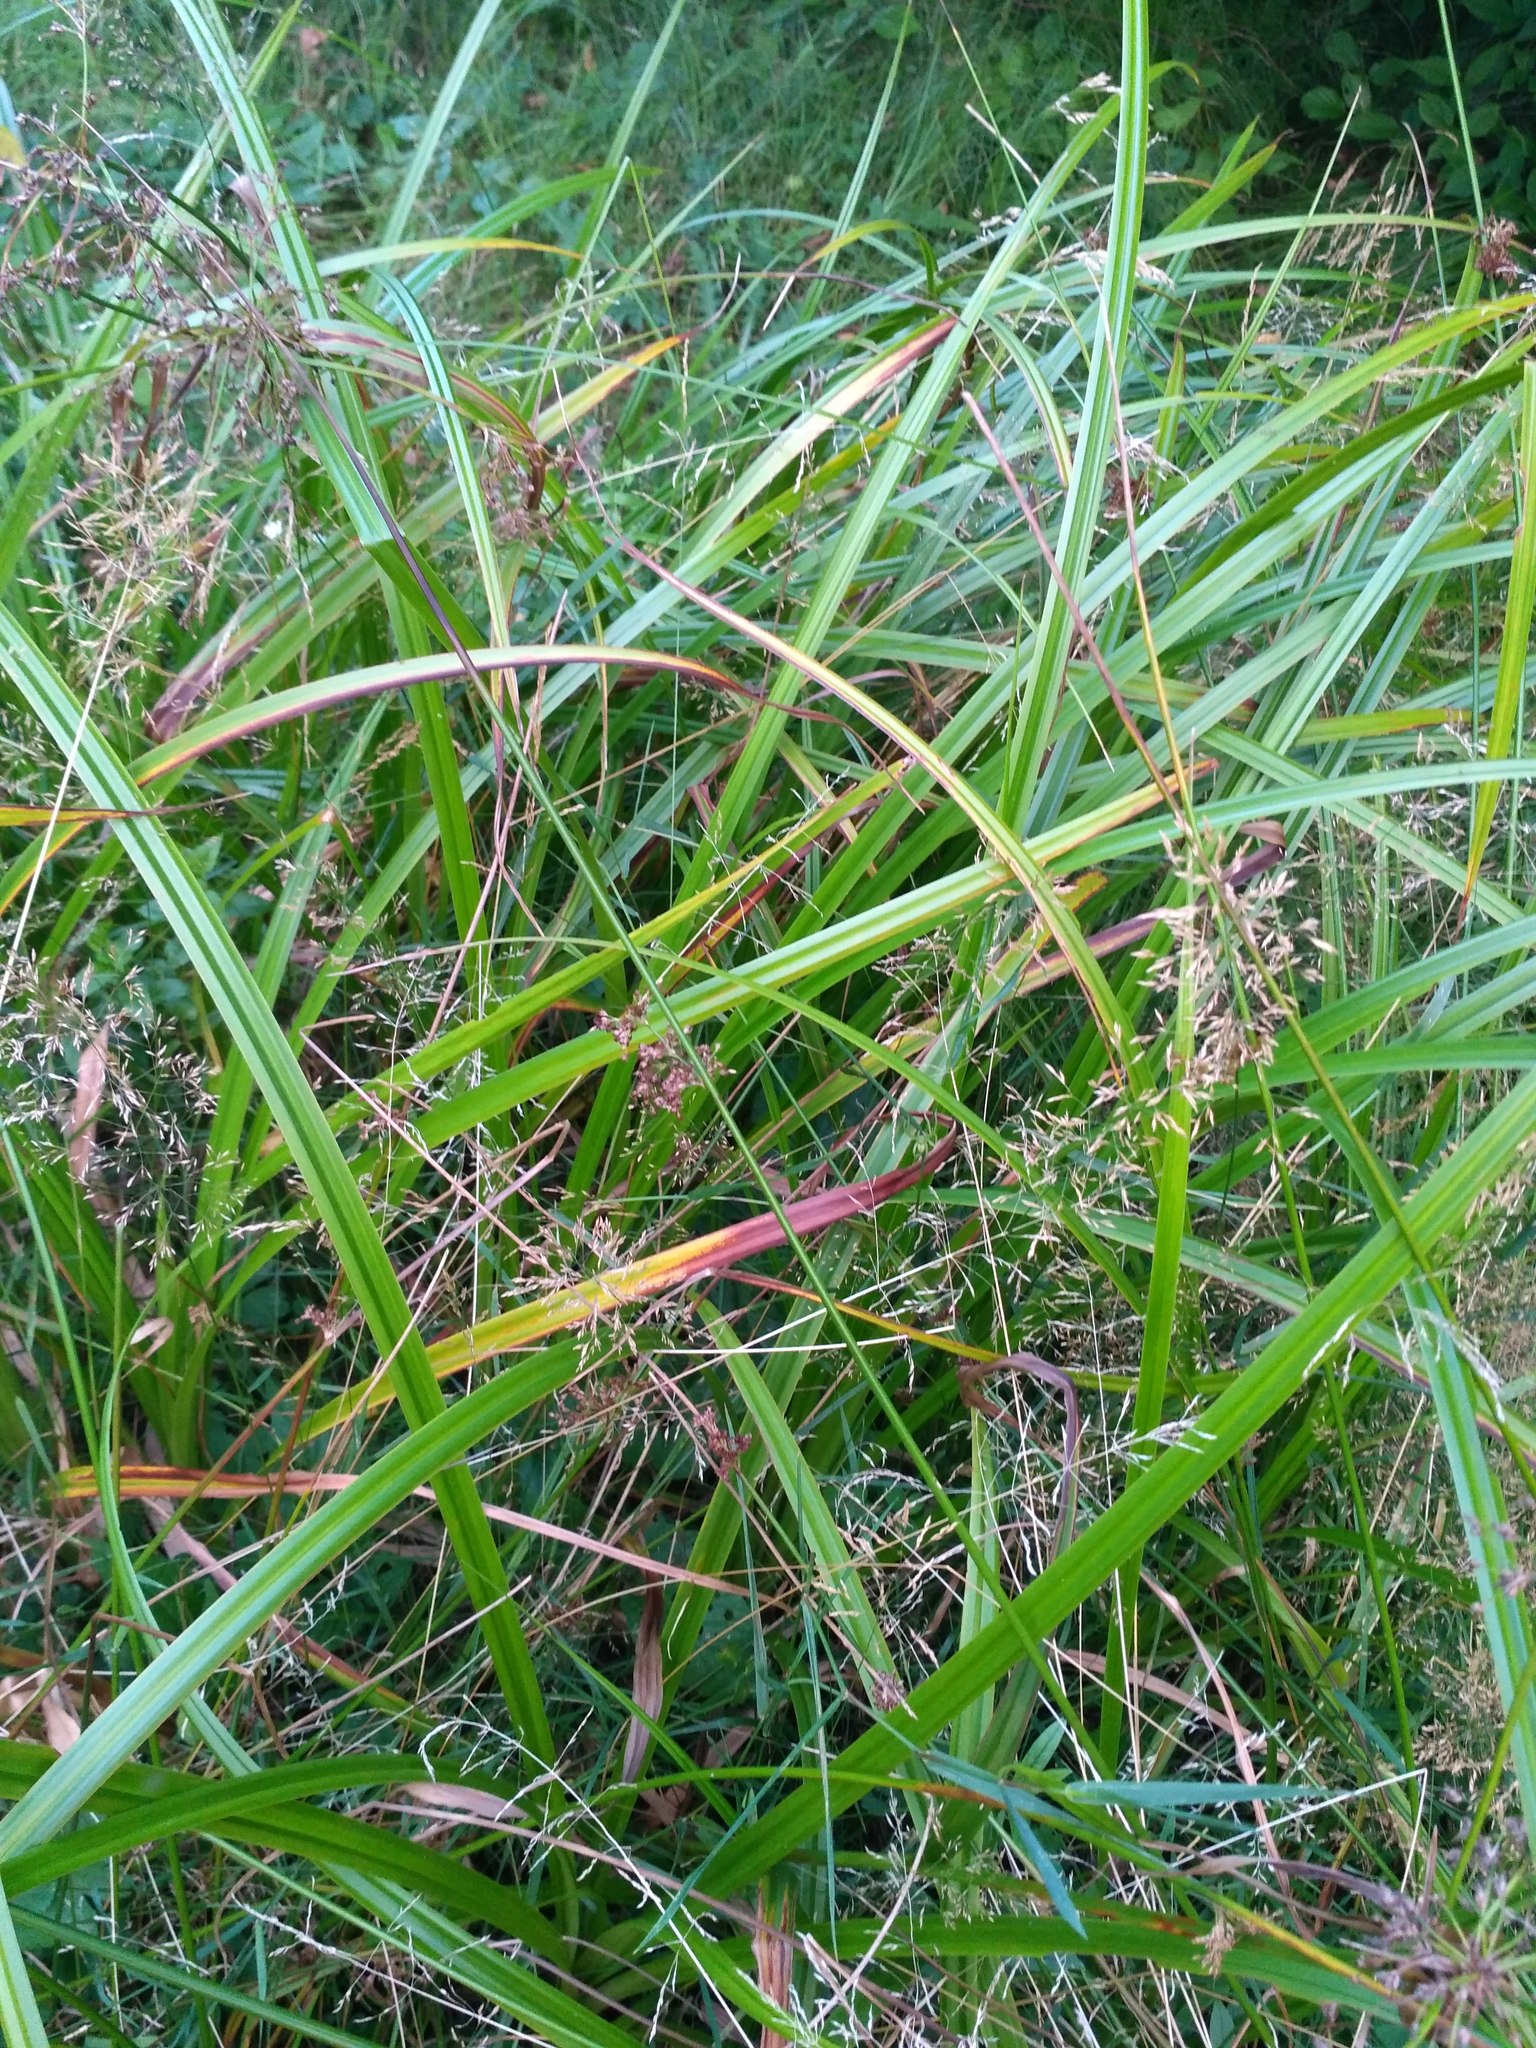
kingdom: Plantae
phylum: Tracheophyta
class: Liliopsida
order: Poales
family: Juncaceae
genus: Juncus
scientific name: Juncus effusus
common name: Soft rush
